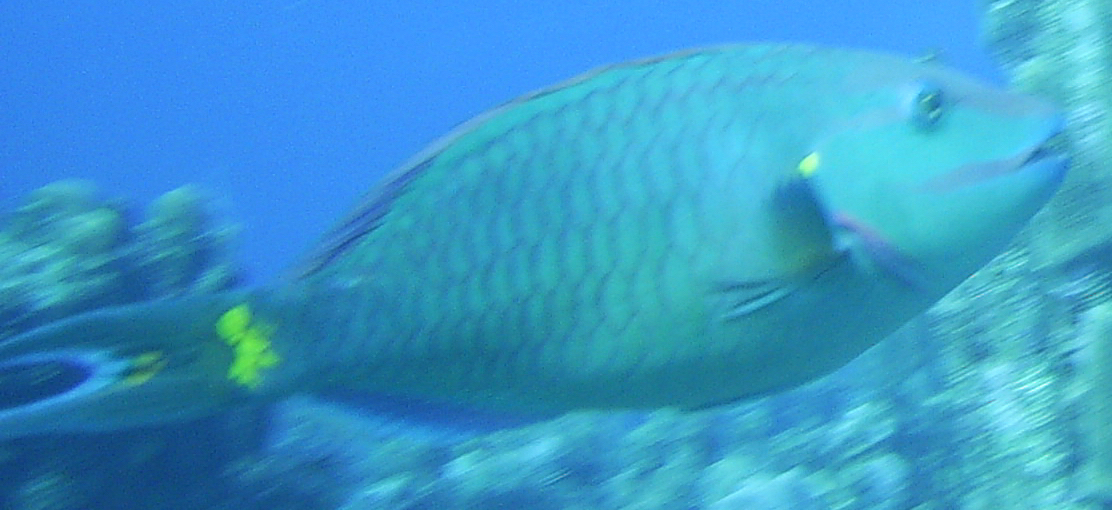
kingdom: Animalia
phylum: Chordata
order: Perciformes
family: Scaridae
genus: Sparisoma
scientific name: Sparisoma viride
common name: Stoplight parrotfish
